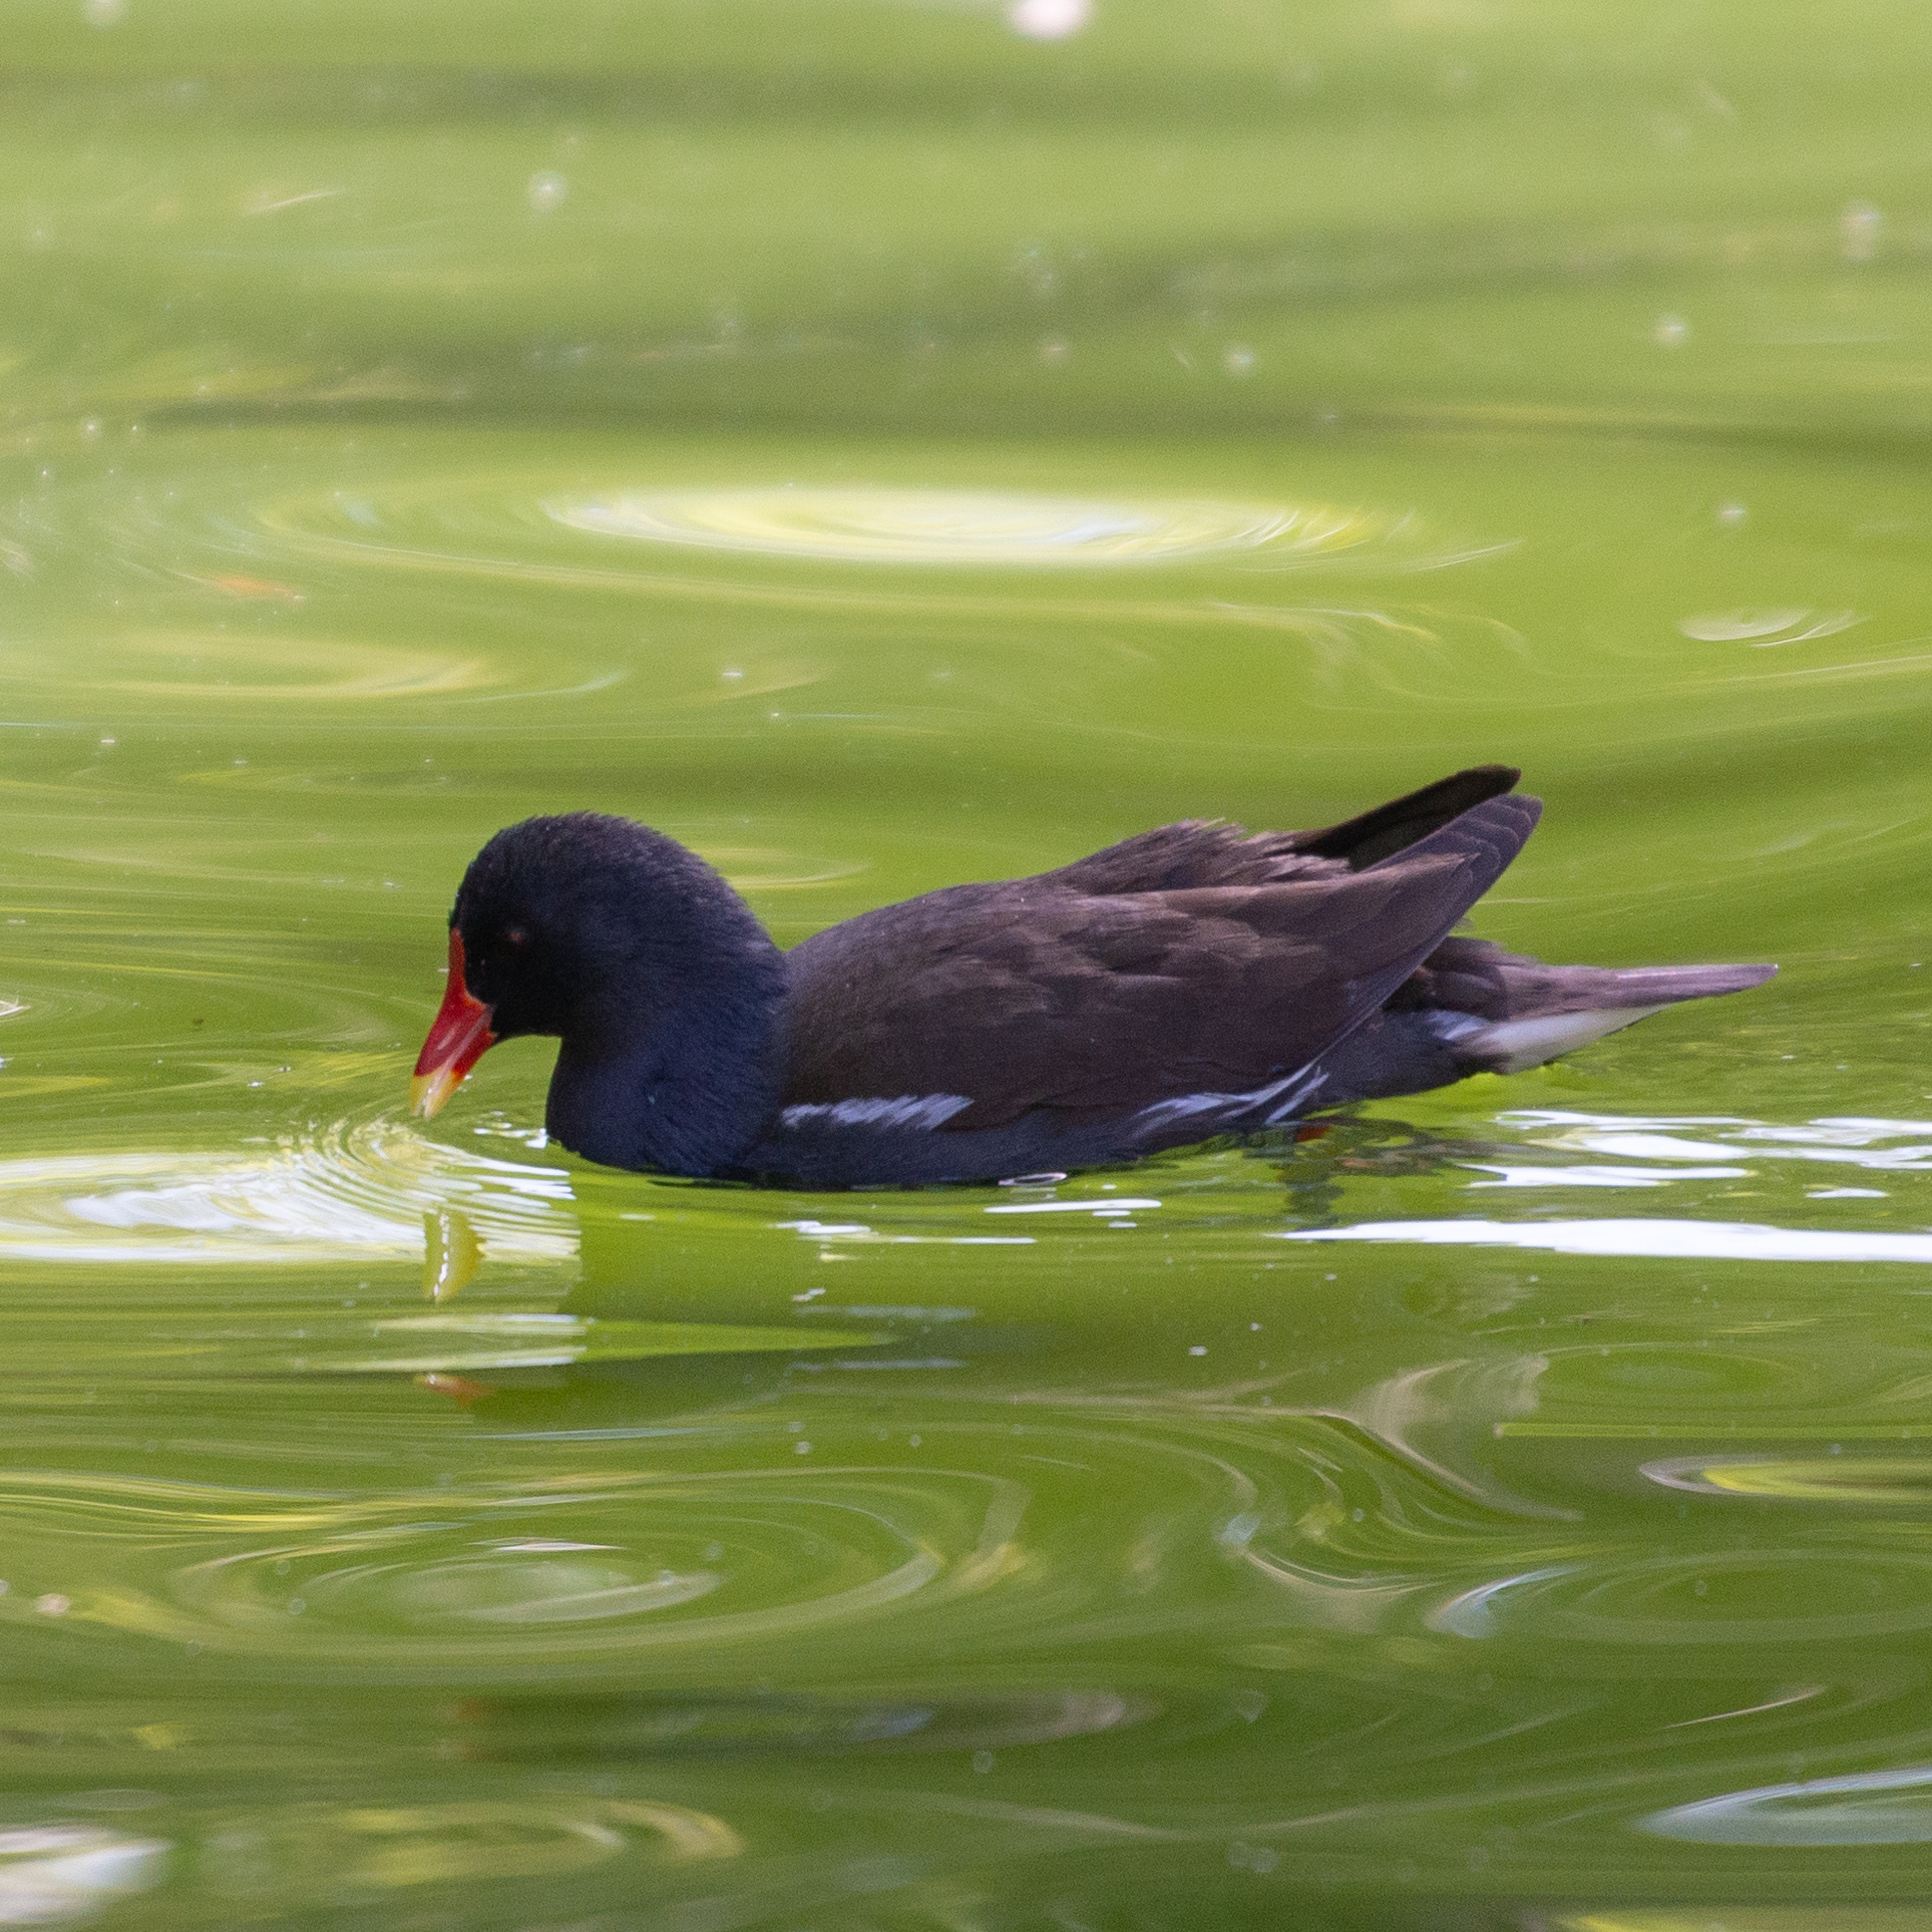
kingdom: Animalia
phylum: Chordata
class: Aves
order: Gruiformes
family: Rallidae
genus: Gallinula
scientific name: Gallinula chloropus
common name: Common moorhen
